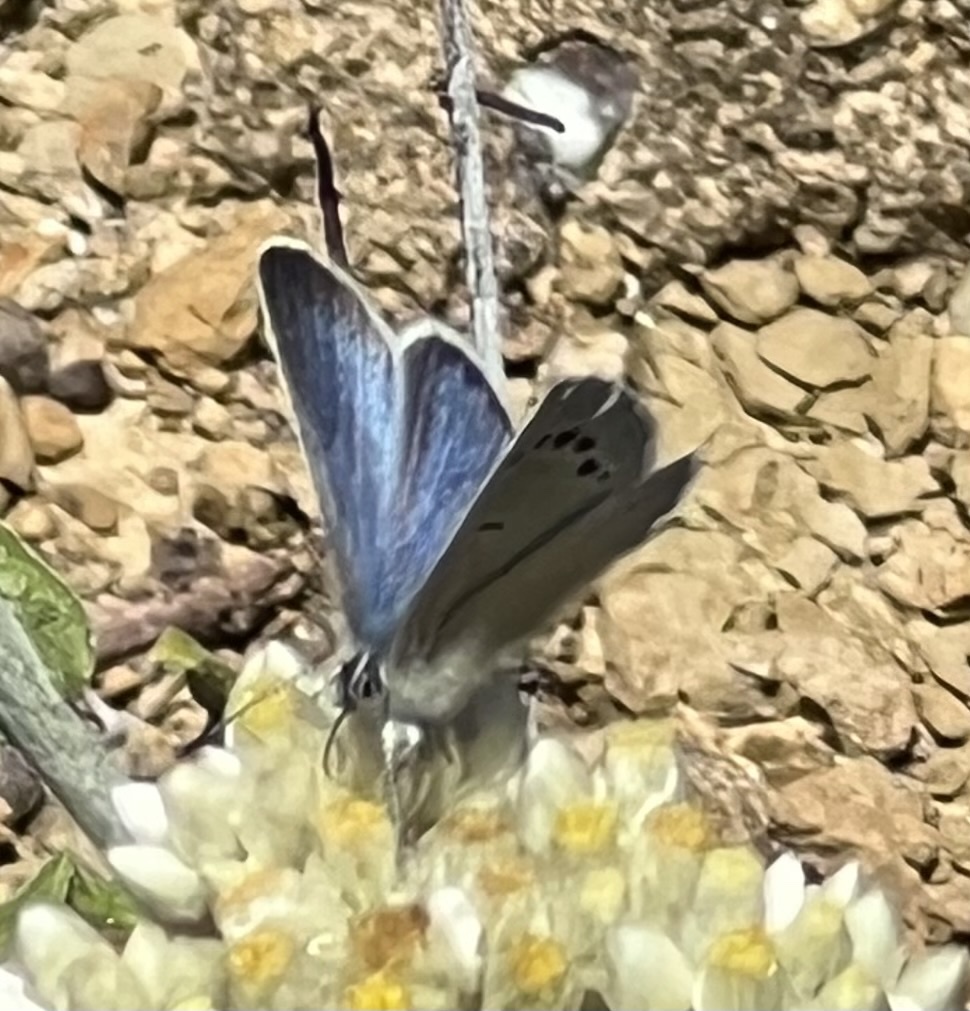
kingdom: Animalia
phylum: Arthropoda
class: Insecta
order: Lepidoptera
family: Lycaenidae
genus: Glaucopsyche
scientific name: Glaucopsyche lygdamus
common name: Silvery blue
